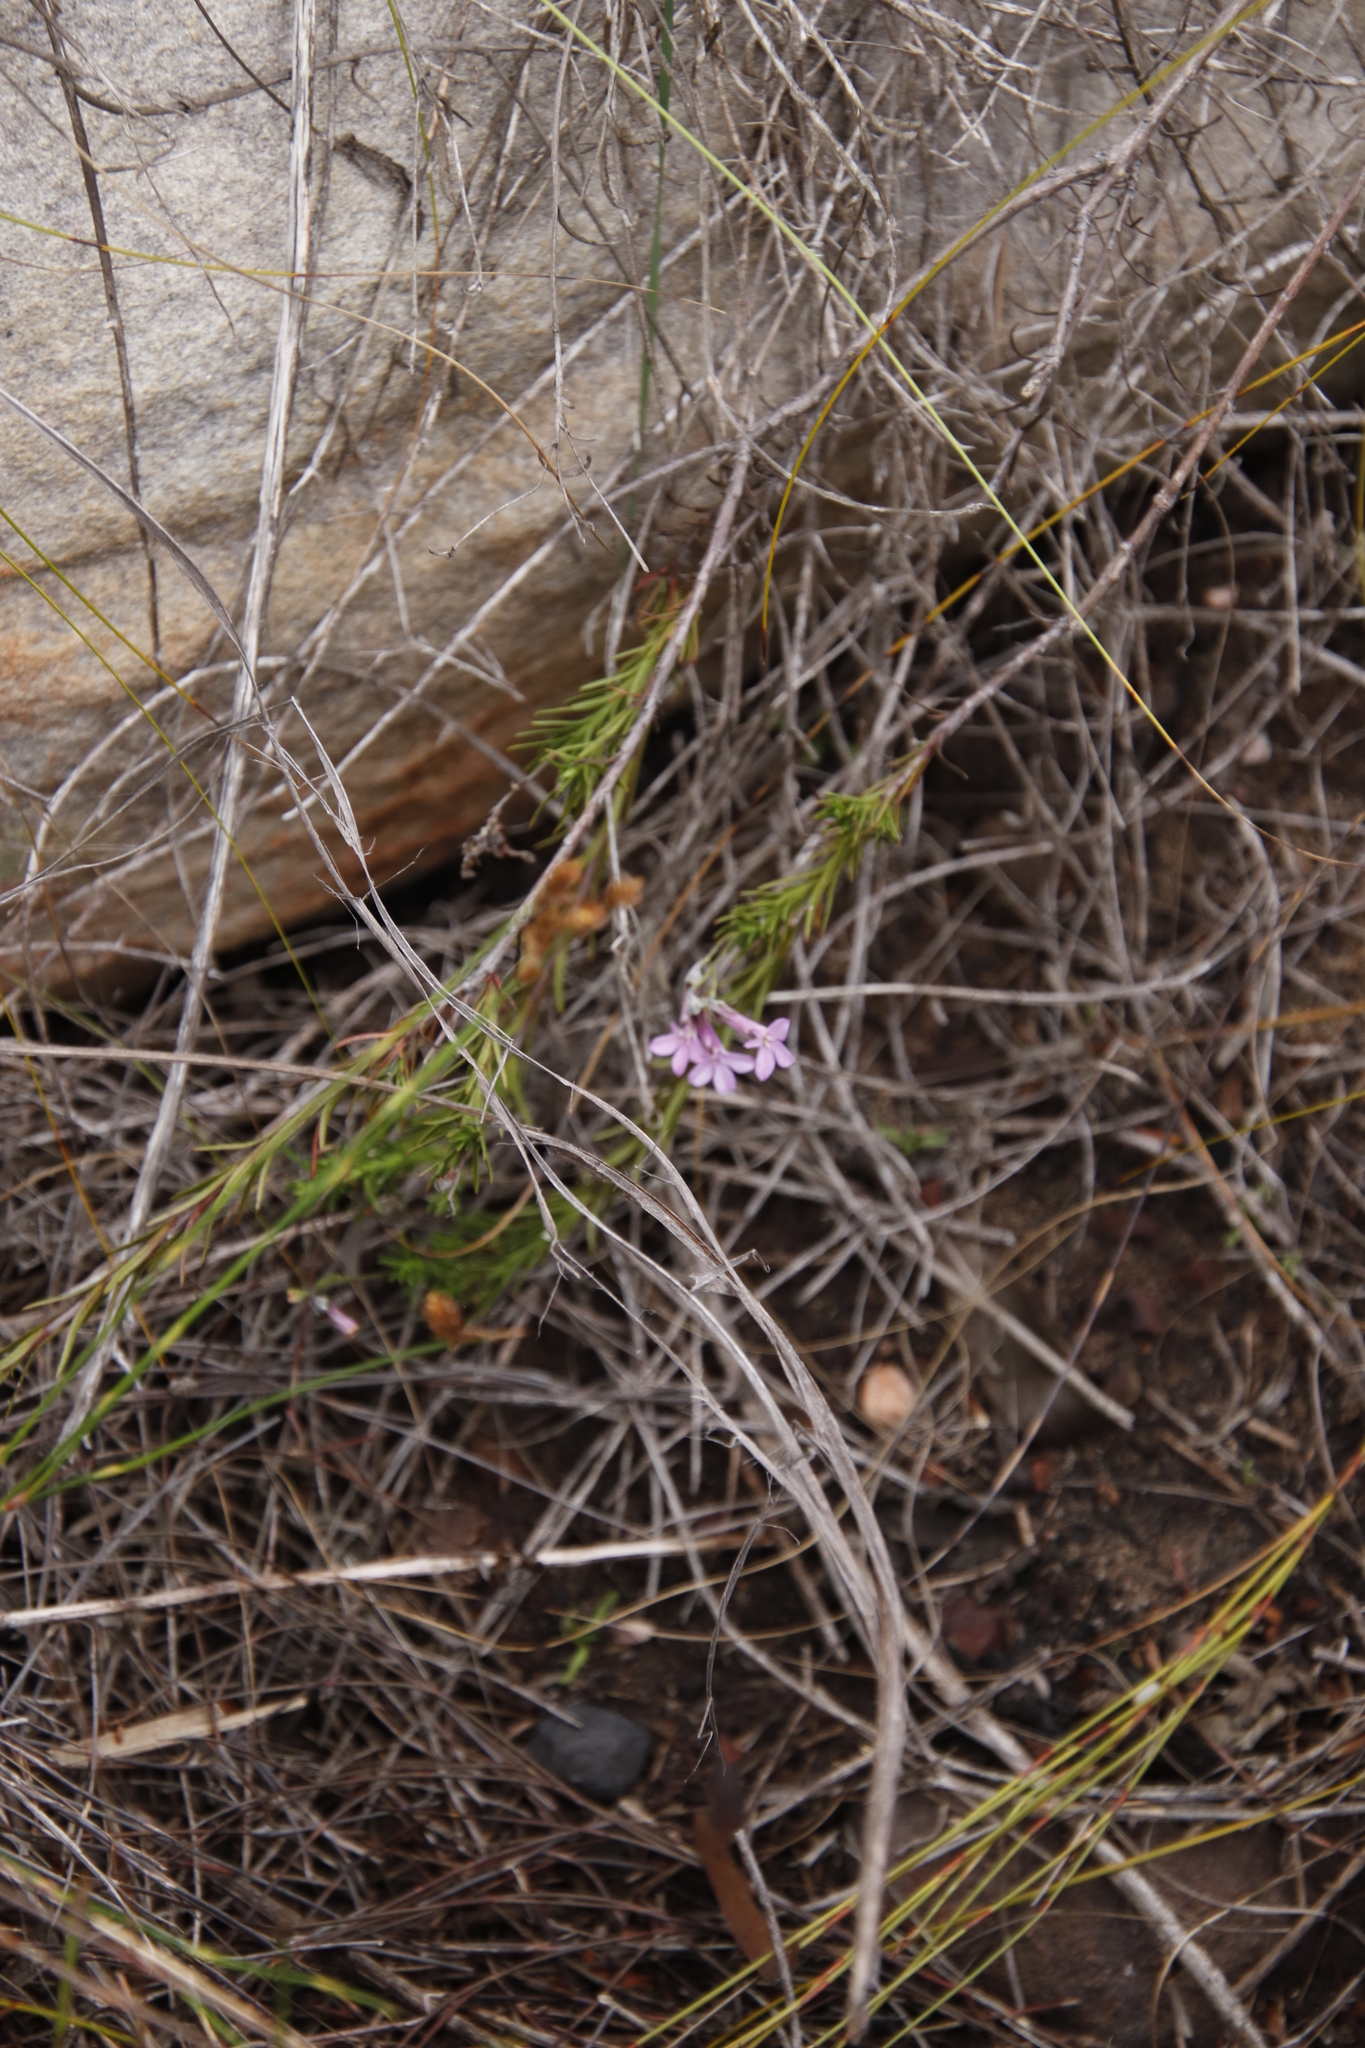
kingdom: Plantae
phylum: Tracheophyta
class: Magnoliopsida
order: Asterales
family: Campanulaceae
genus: Lobelia
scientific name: Lobelia pinifolia
